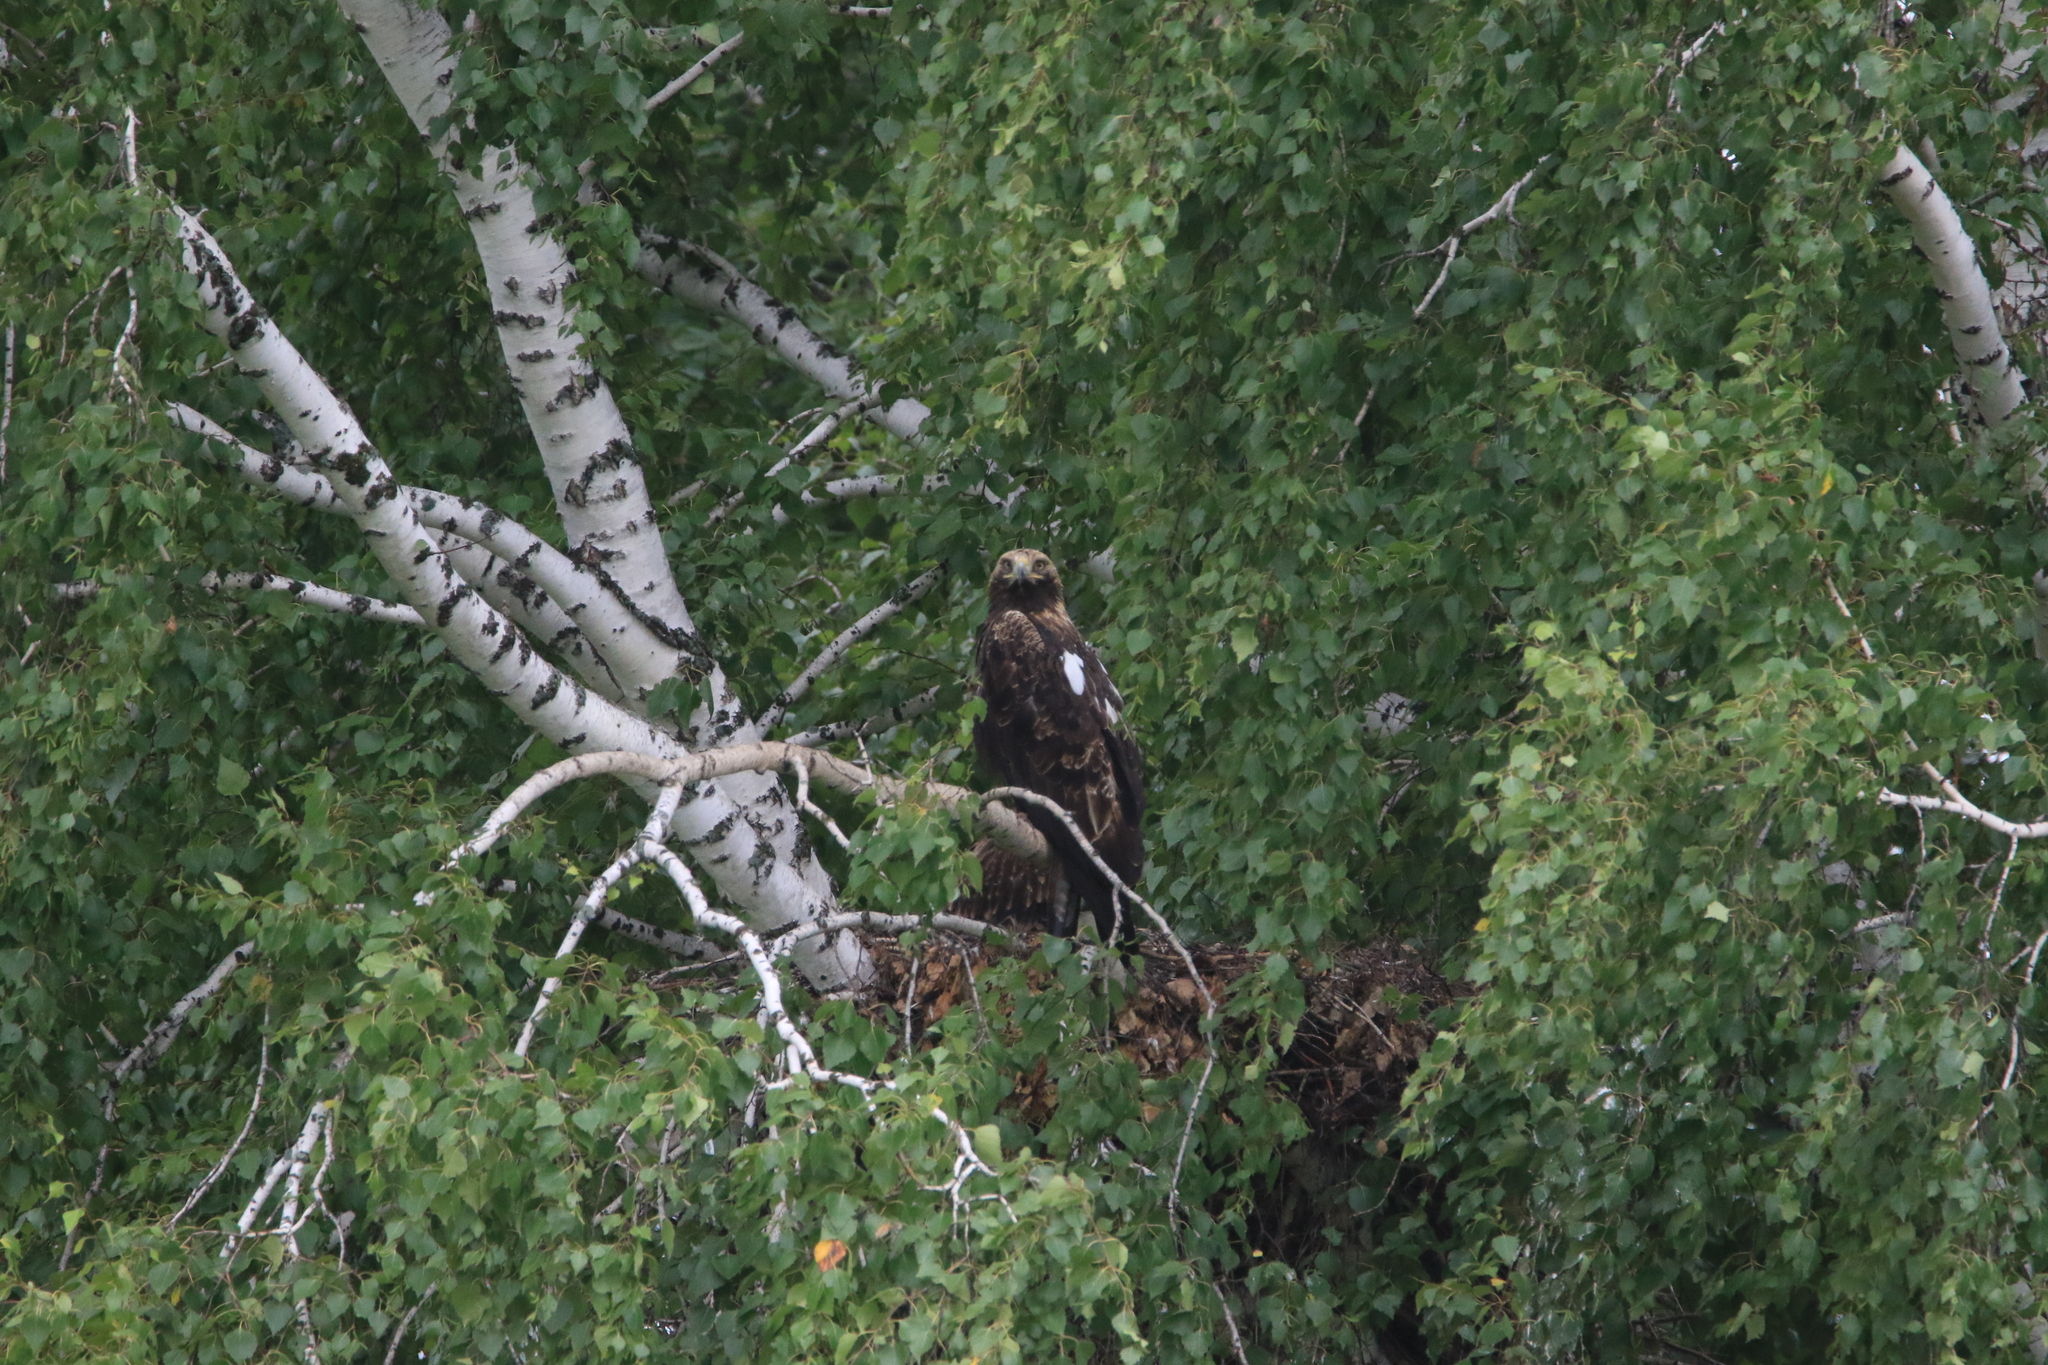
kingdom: Animalia
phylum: Chordata
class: Aves
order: Accipitriformes
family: Accipitridae
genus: Aquila
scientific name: Aquila heliaca
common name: Eastern imperial eagle
